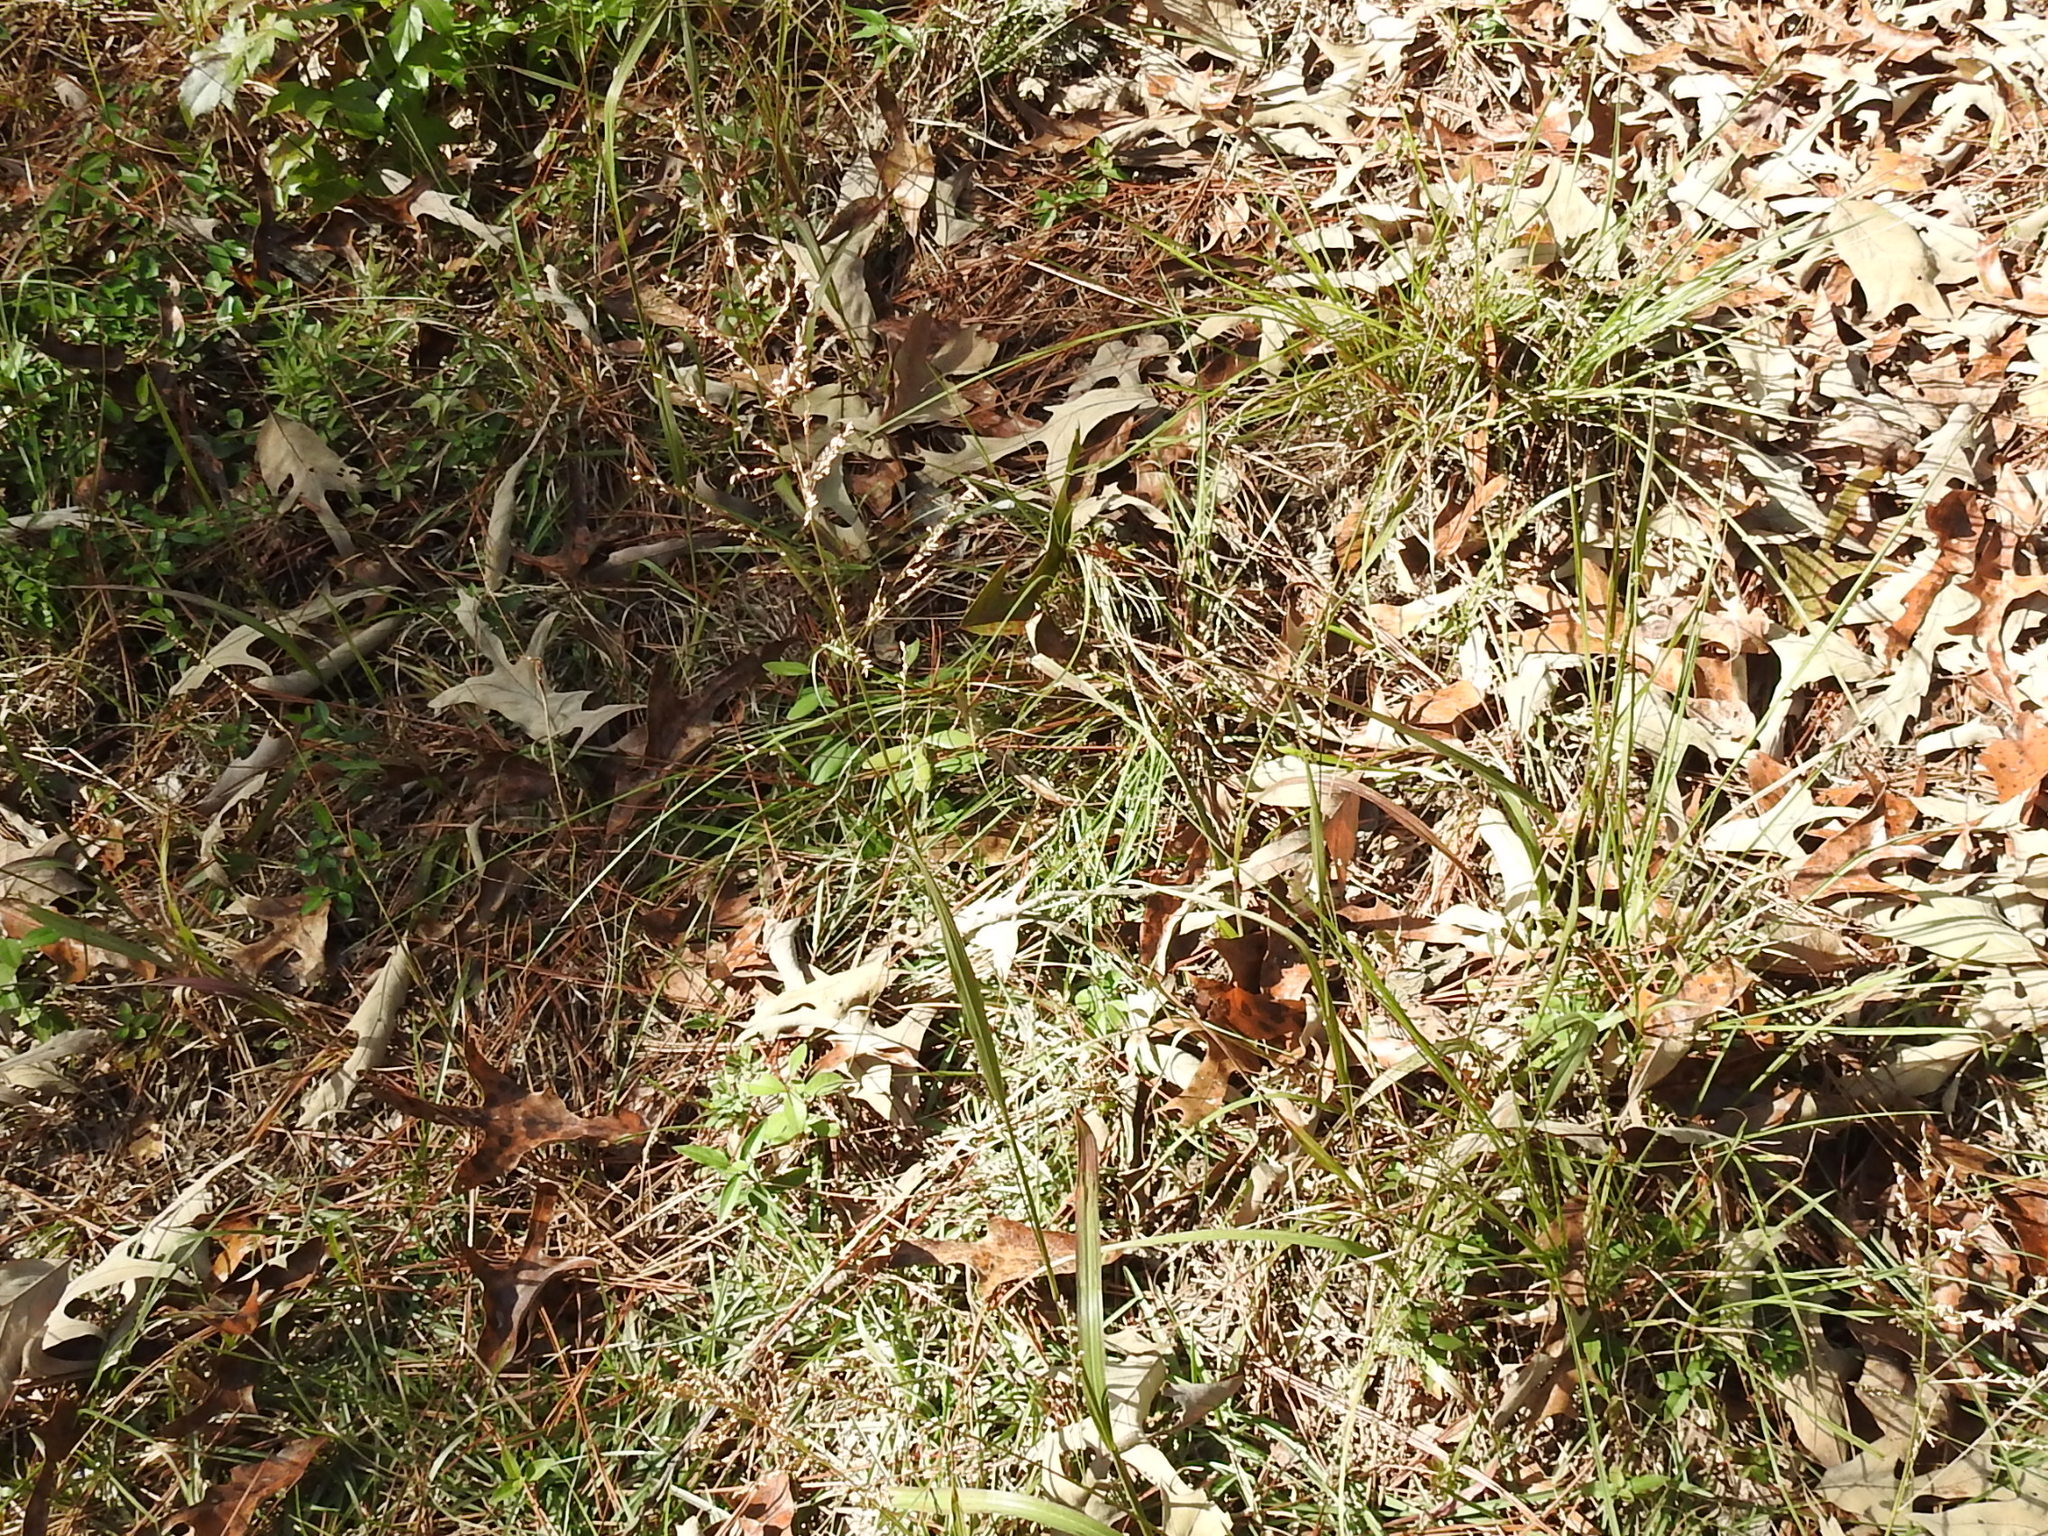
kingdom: Plantae
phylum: Tracheophyta
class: Liliopsida
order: Poales
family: Poaceae
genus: Coleataenia
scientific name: Coleataenia rigidula
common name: Redtop panicgrass
